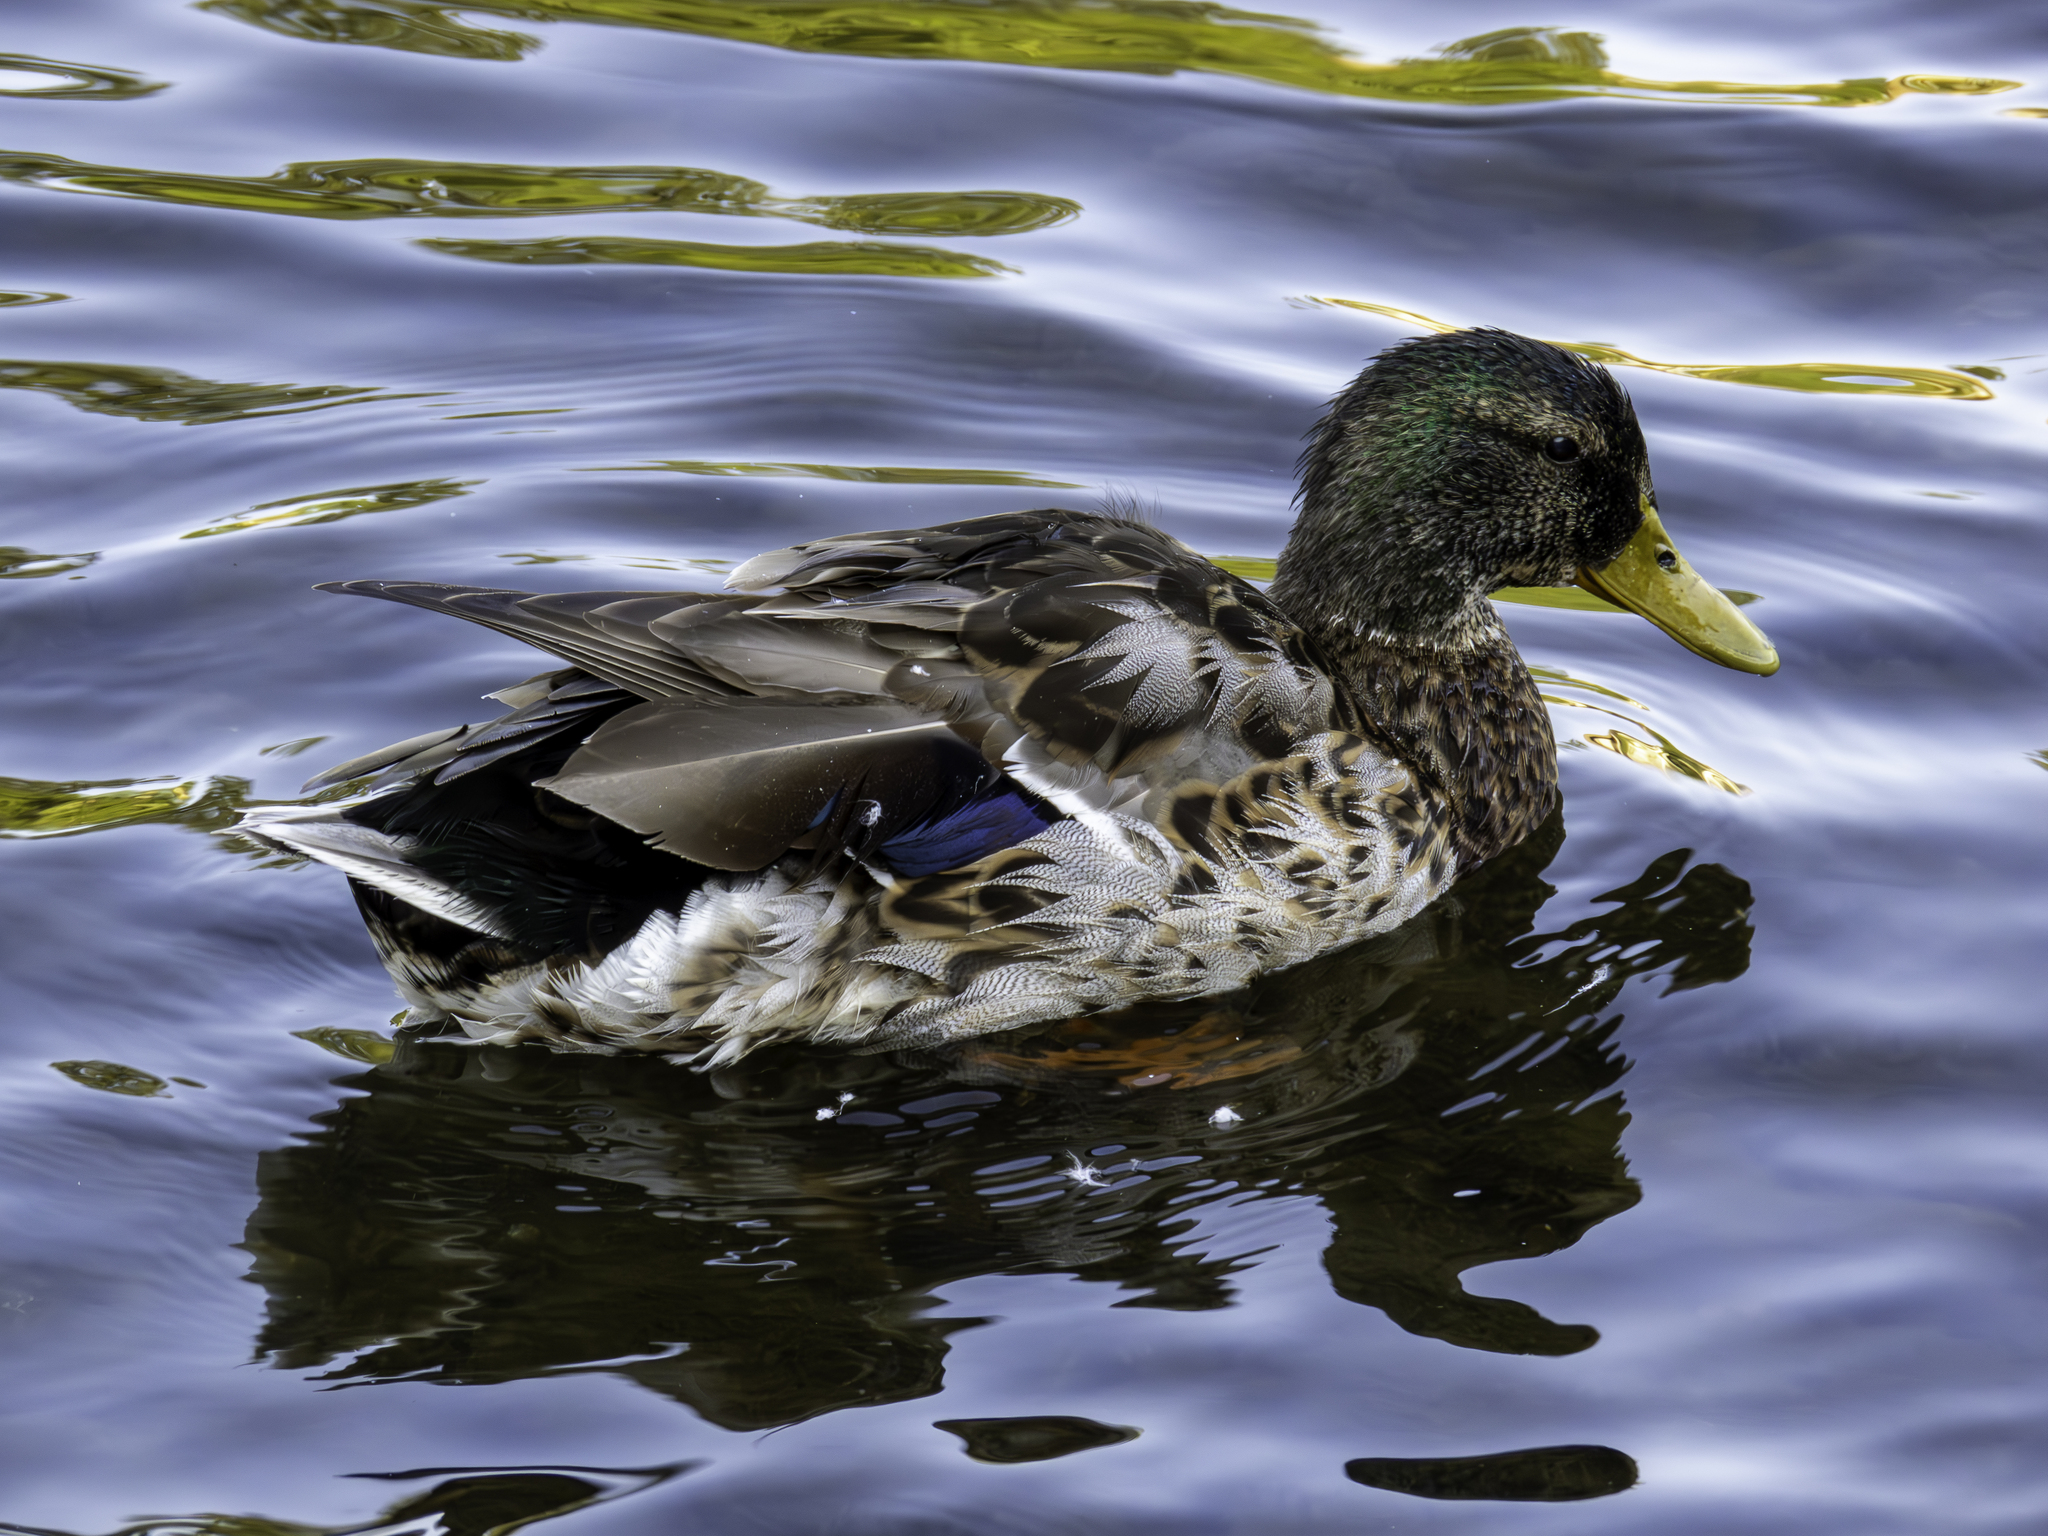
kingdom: Animalia
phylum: Chordata
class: Aves
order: Anseriformes
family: Anatidae
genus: Anas
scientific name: Anas platyrhynchos
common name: Mallard
